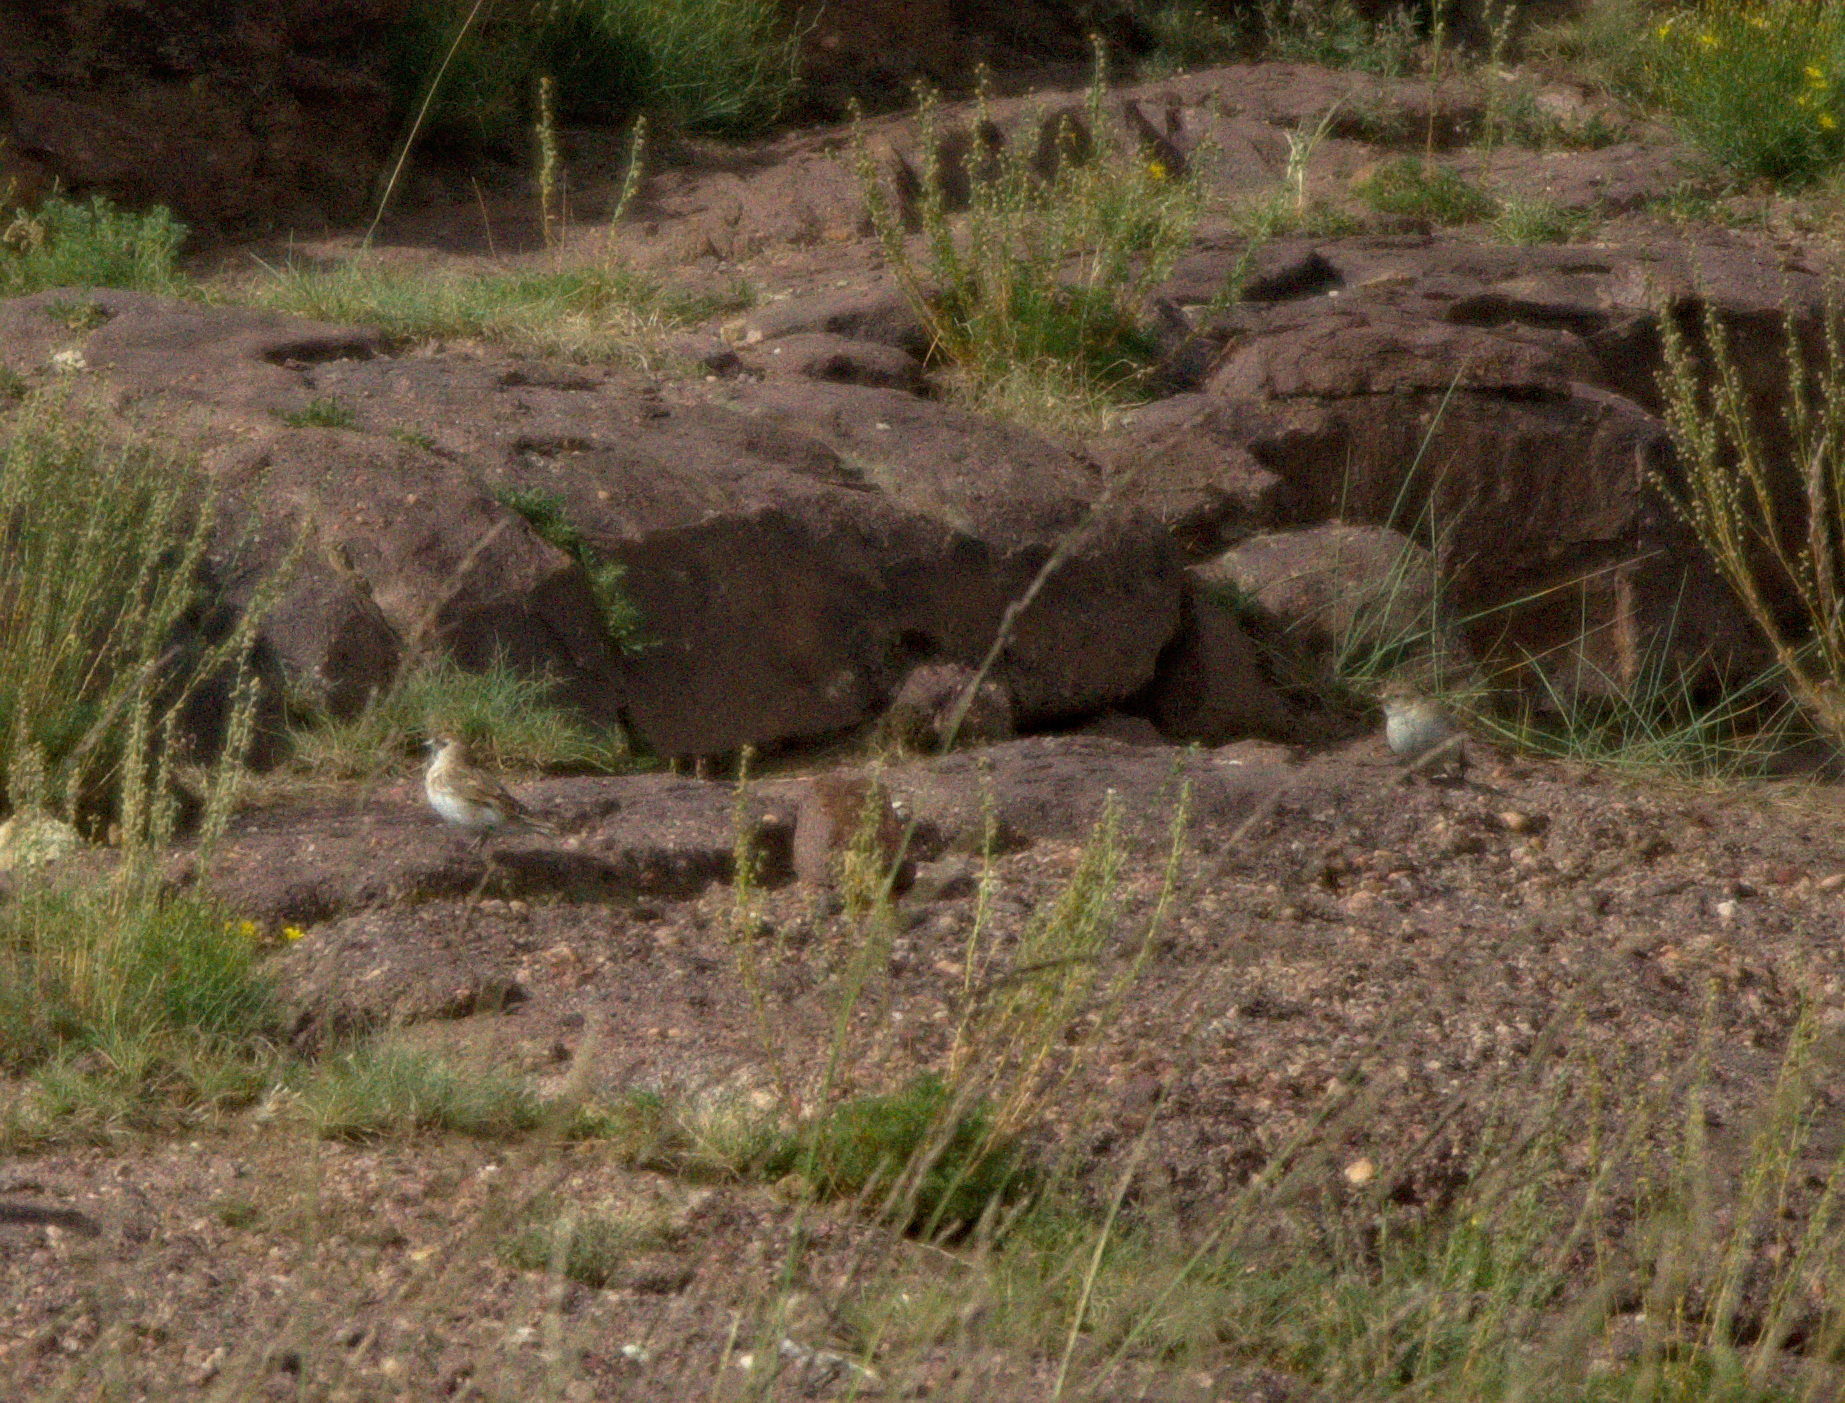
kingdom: Animalia
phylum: Chordata
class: Aves
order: Passeriformes
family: Passeridae
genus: Pyrgilauda
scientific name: Pyrgilauda davidiana
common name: Pere david's snowfinch
